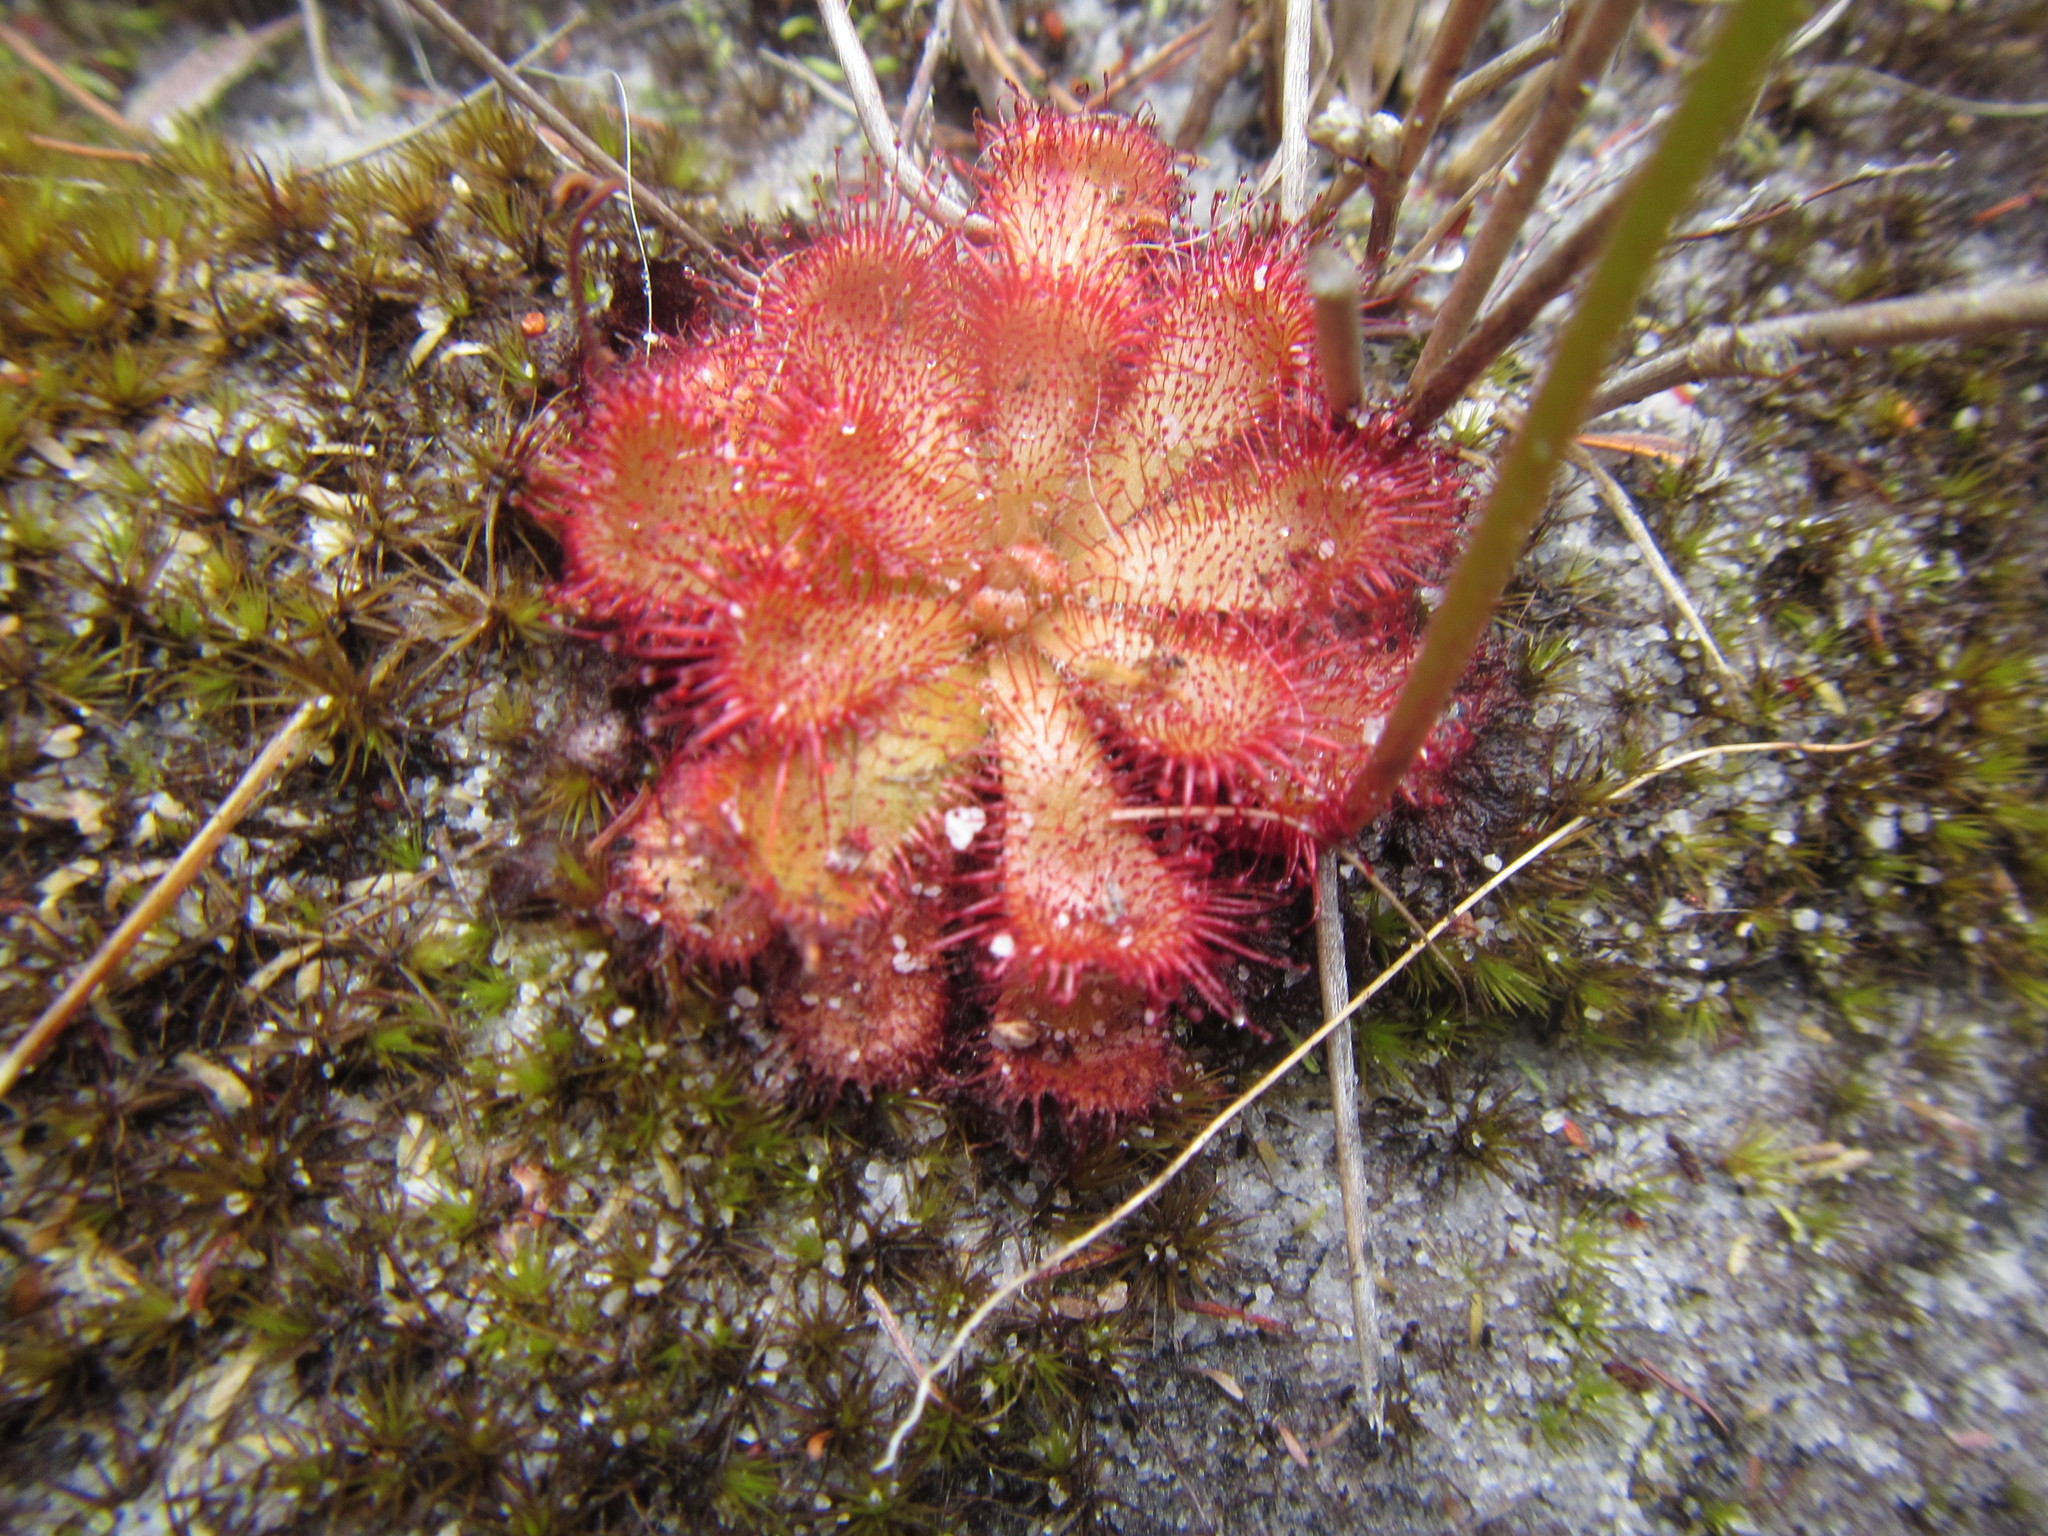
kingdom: Plantae
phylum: Tracheophyta
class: Magnoliopsida
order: Caryophyllales
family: Droseraceae
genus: Drosera
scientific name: Drosera aliciae
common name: Alice sundew
